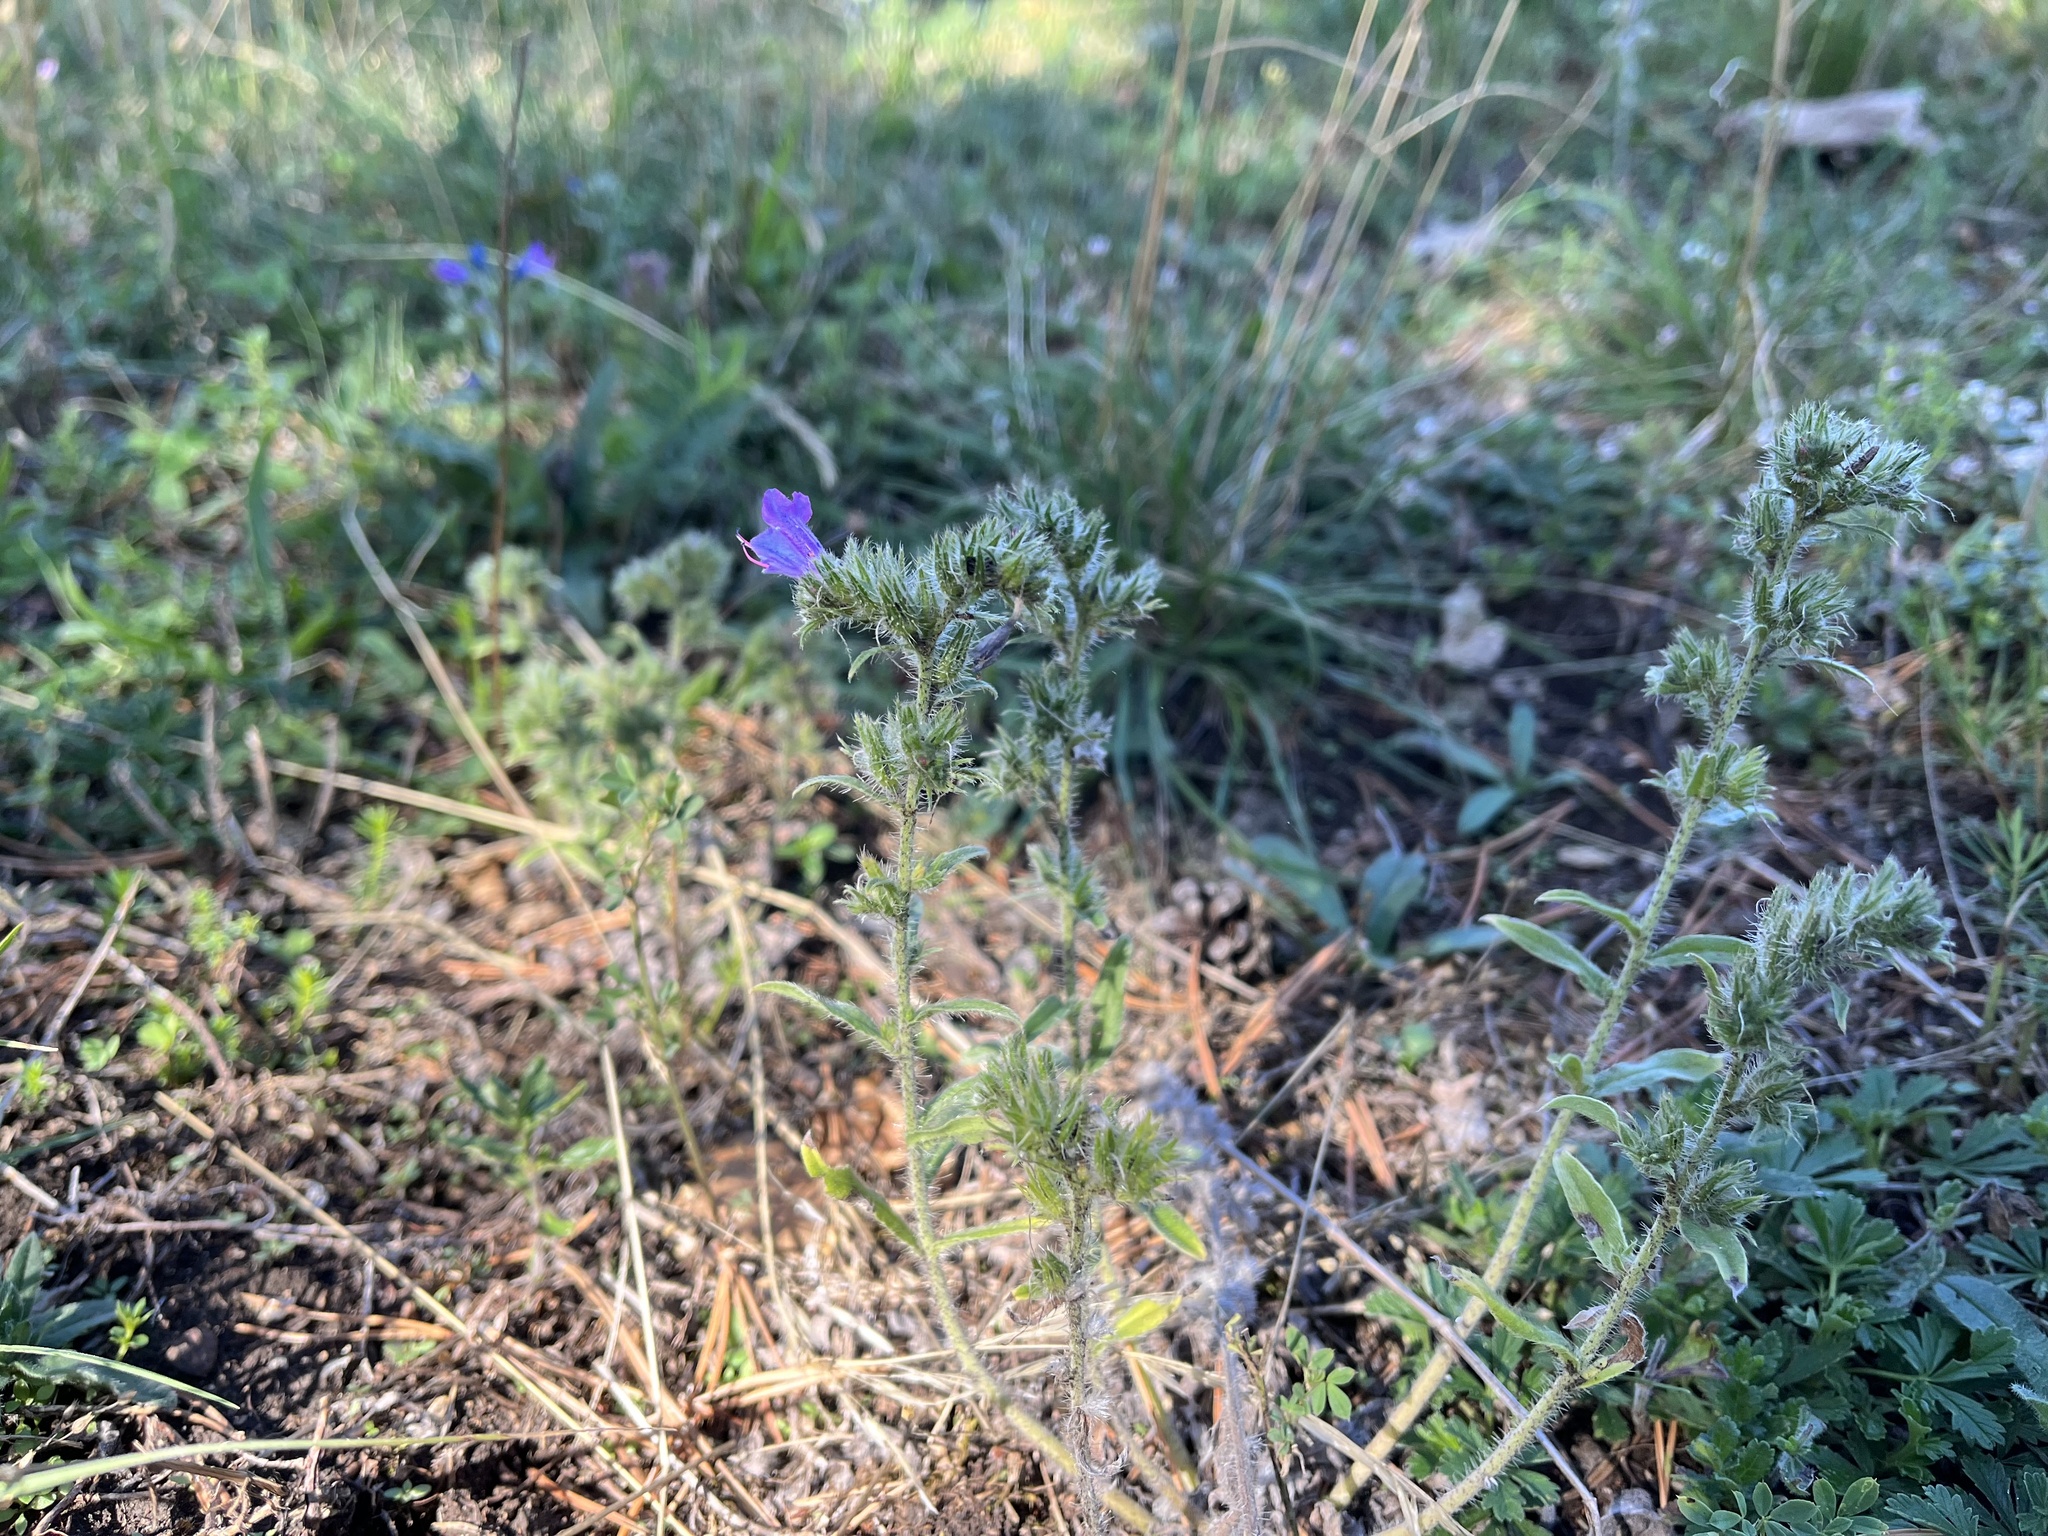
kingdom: Plantae
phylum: Tracheophyta
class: Magnoliopsida
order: Boraginales
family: Boraginaceae
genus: Echium
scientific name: Echium vulgare
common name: Common viper's bugloss
